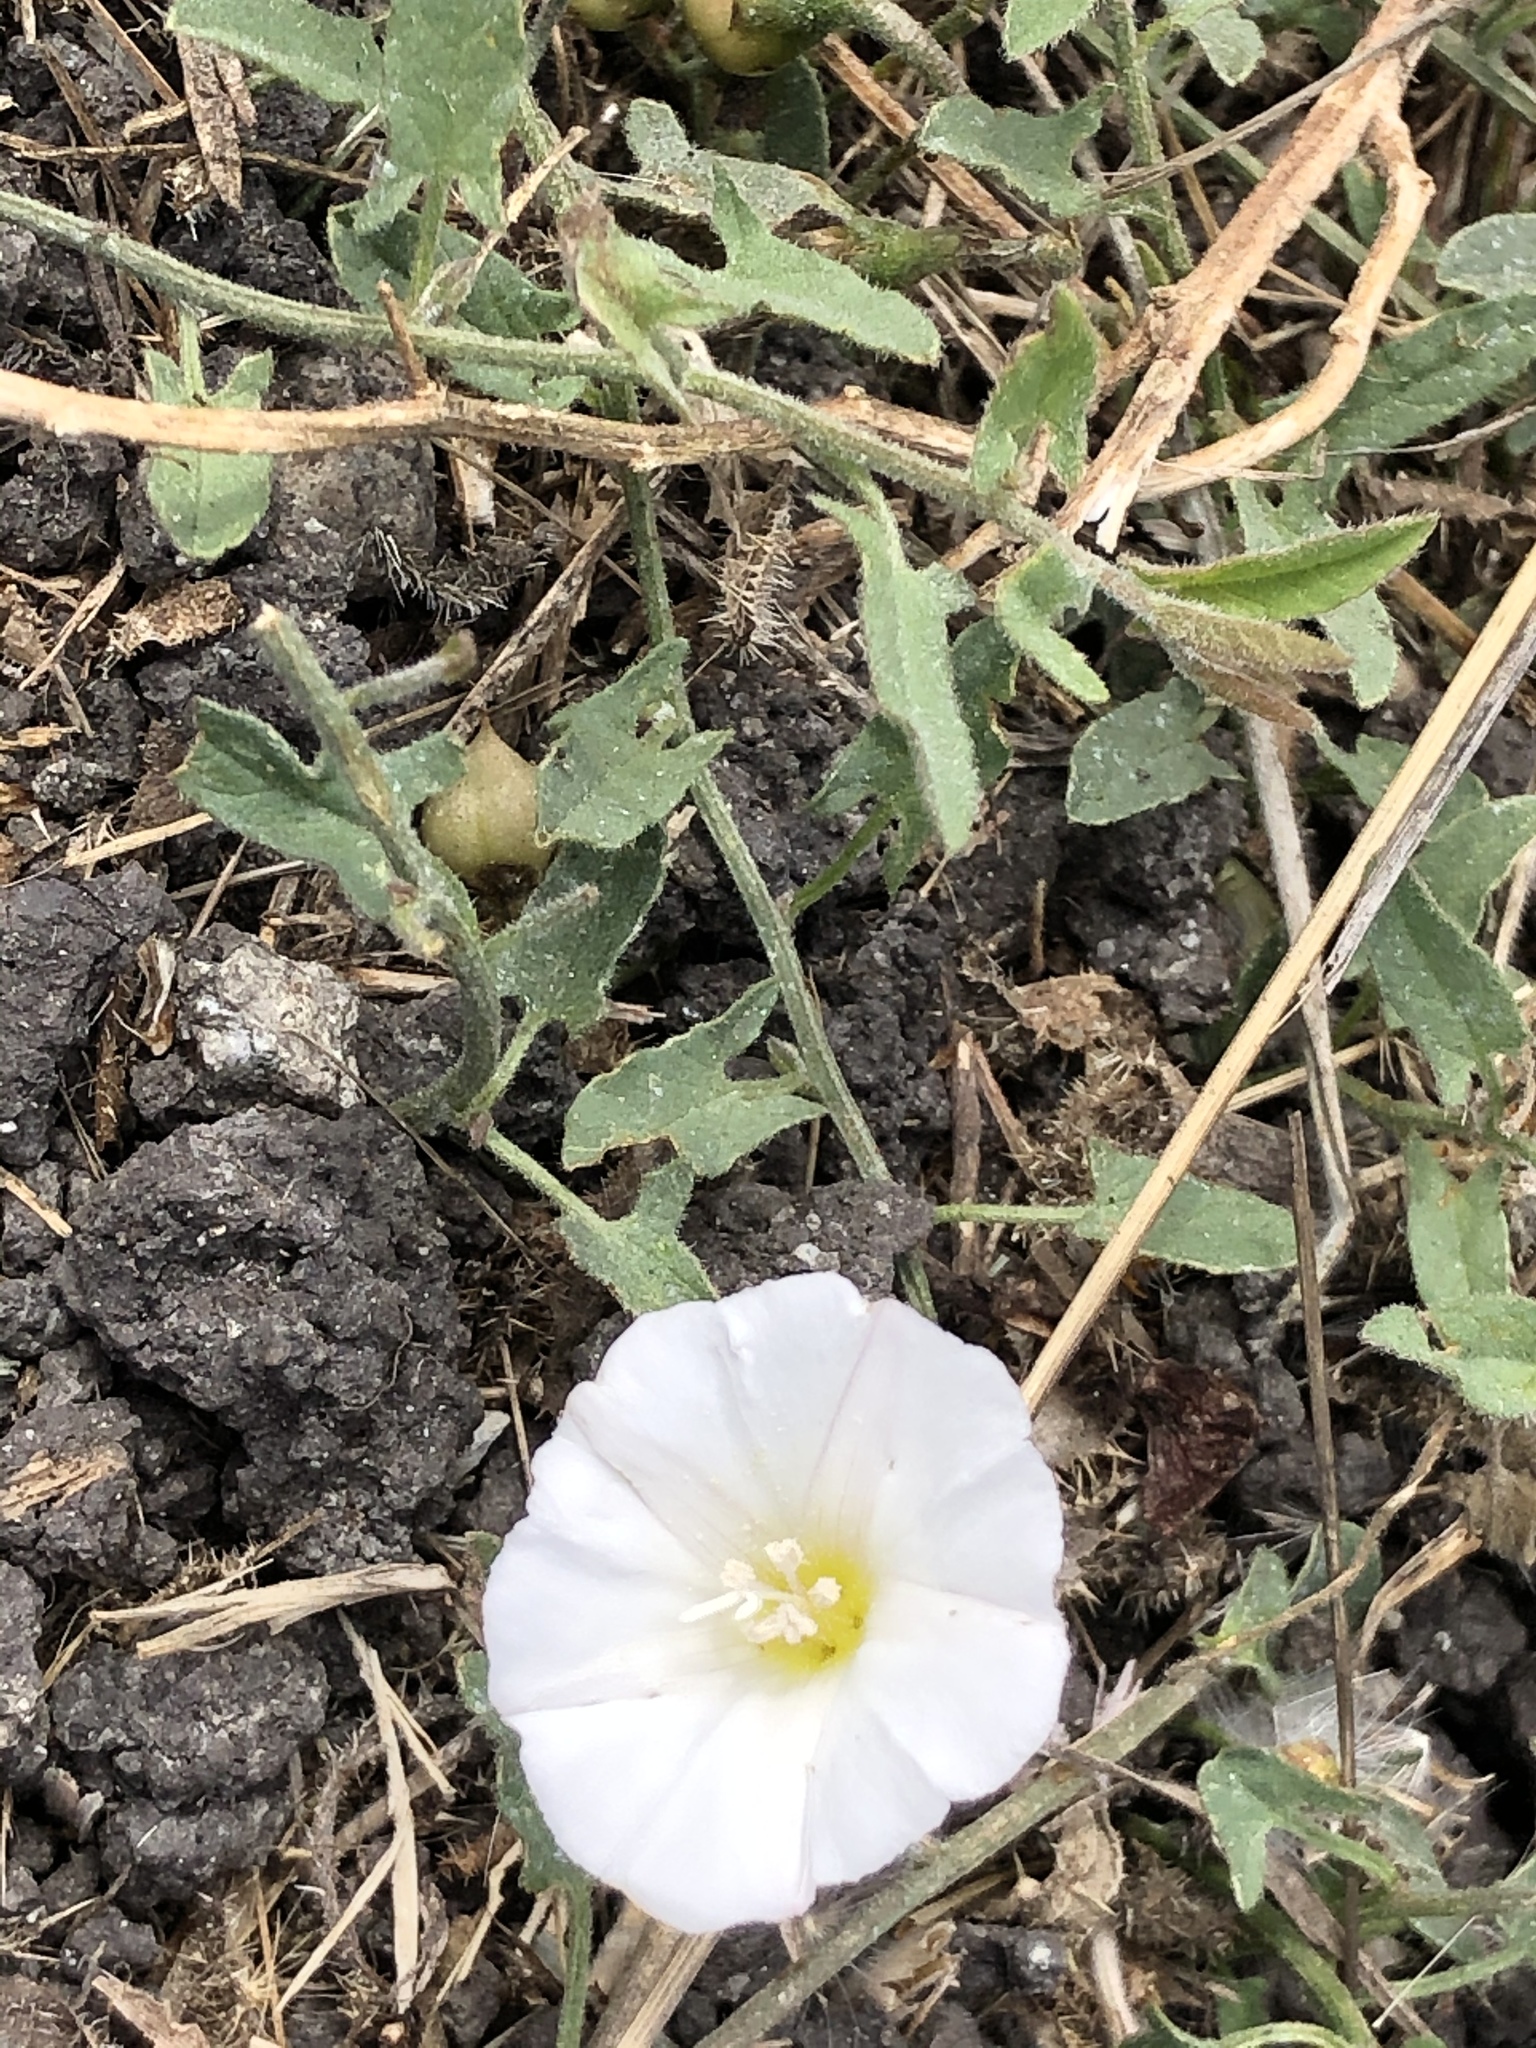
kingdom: Plantae
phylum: Tracheophyta
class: Magnoliopsida
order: Solanales
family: Convolvulaceae
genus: Convolvulus
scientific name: Convolvulus arvensis
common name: Field bindweed
